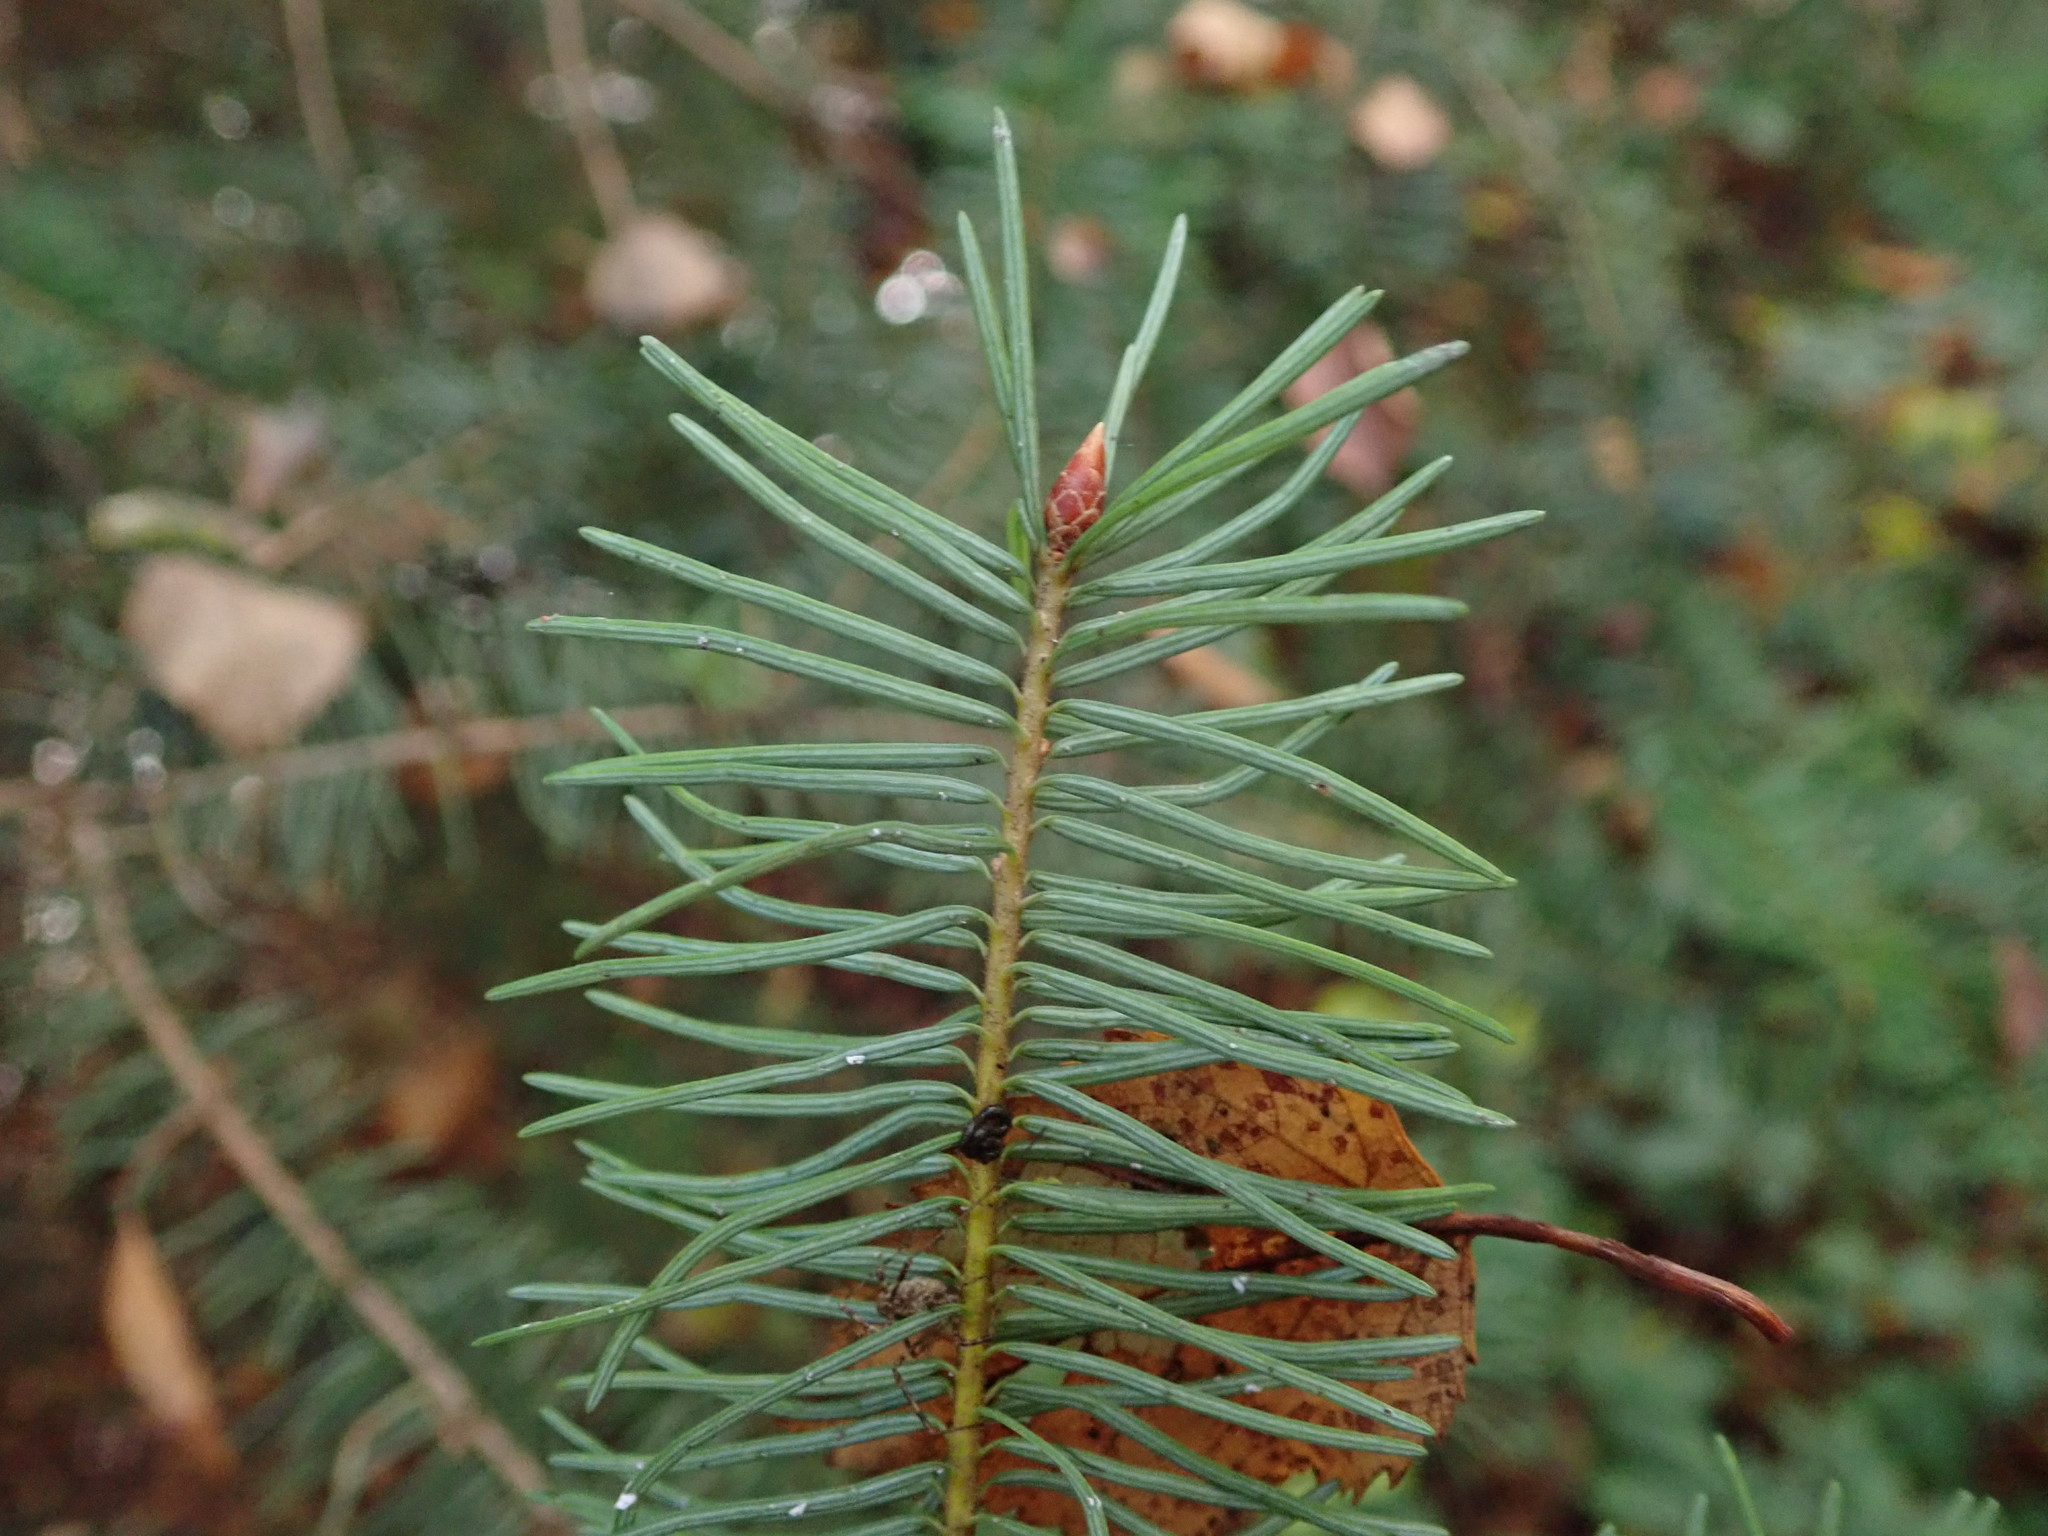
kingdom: Plantae
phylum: Tracheophyta
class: Pinopsida
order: Pinales
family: Pinaceae
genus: Pseudotsuga
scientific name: Pseudotsuga menziesii
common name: Douglas fir
